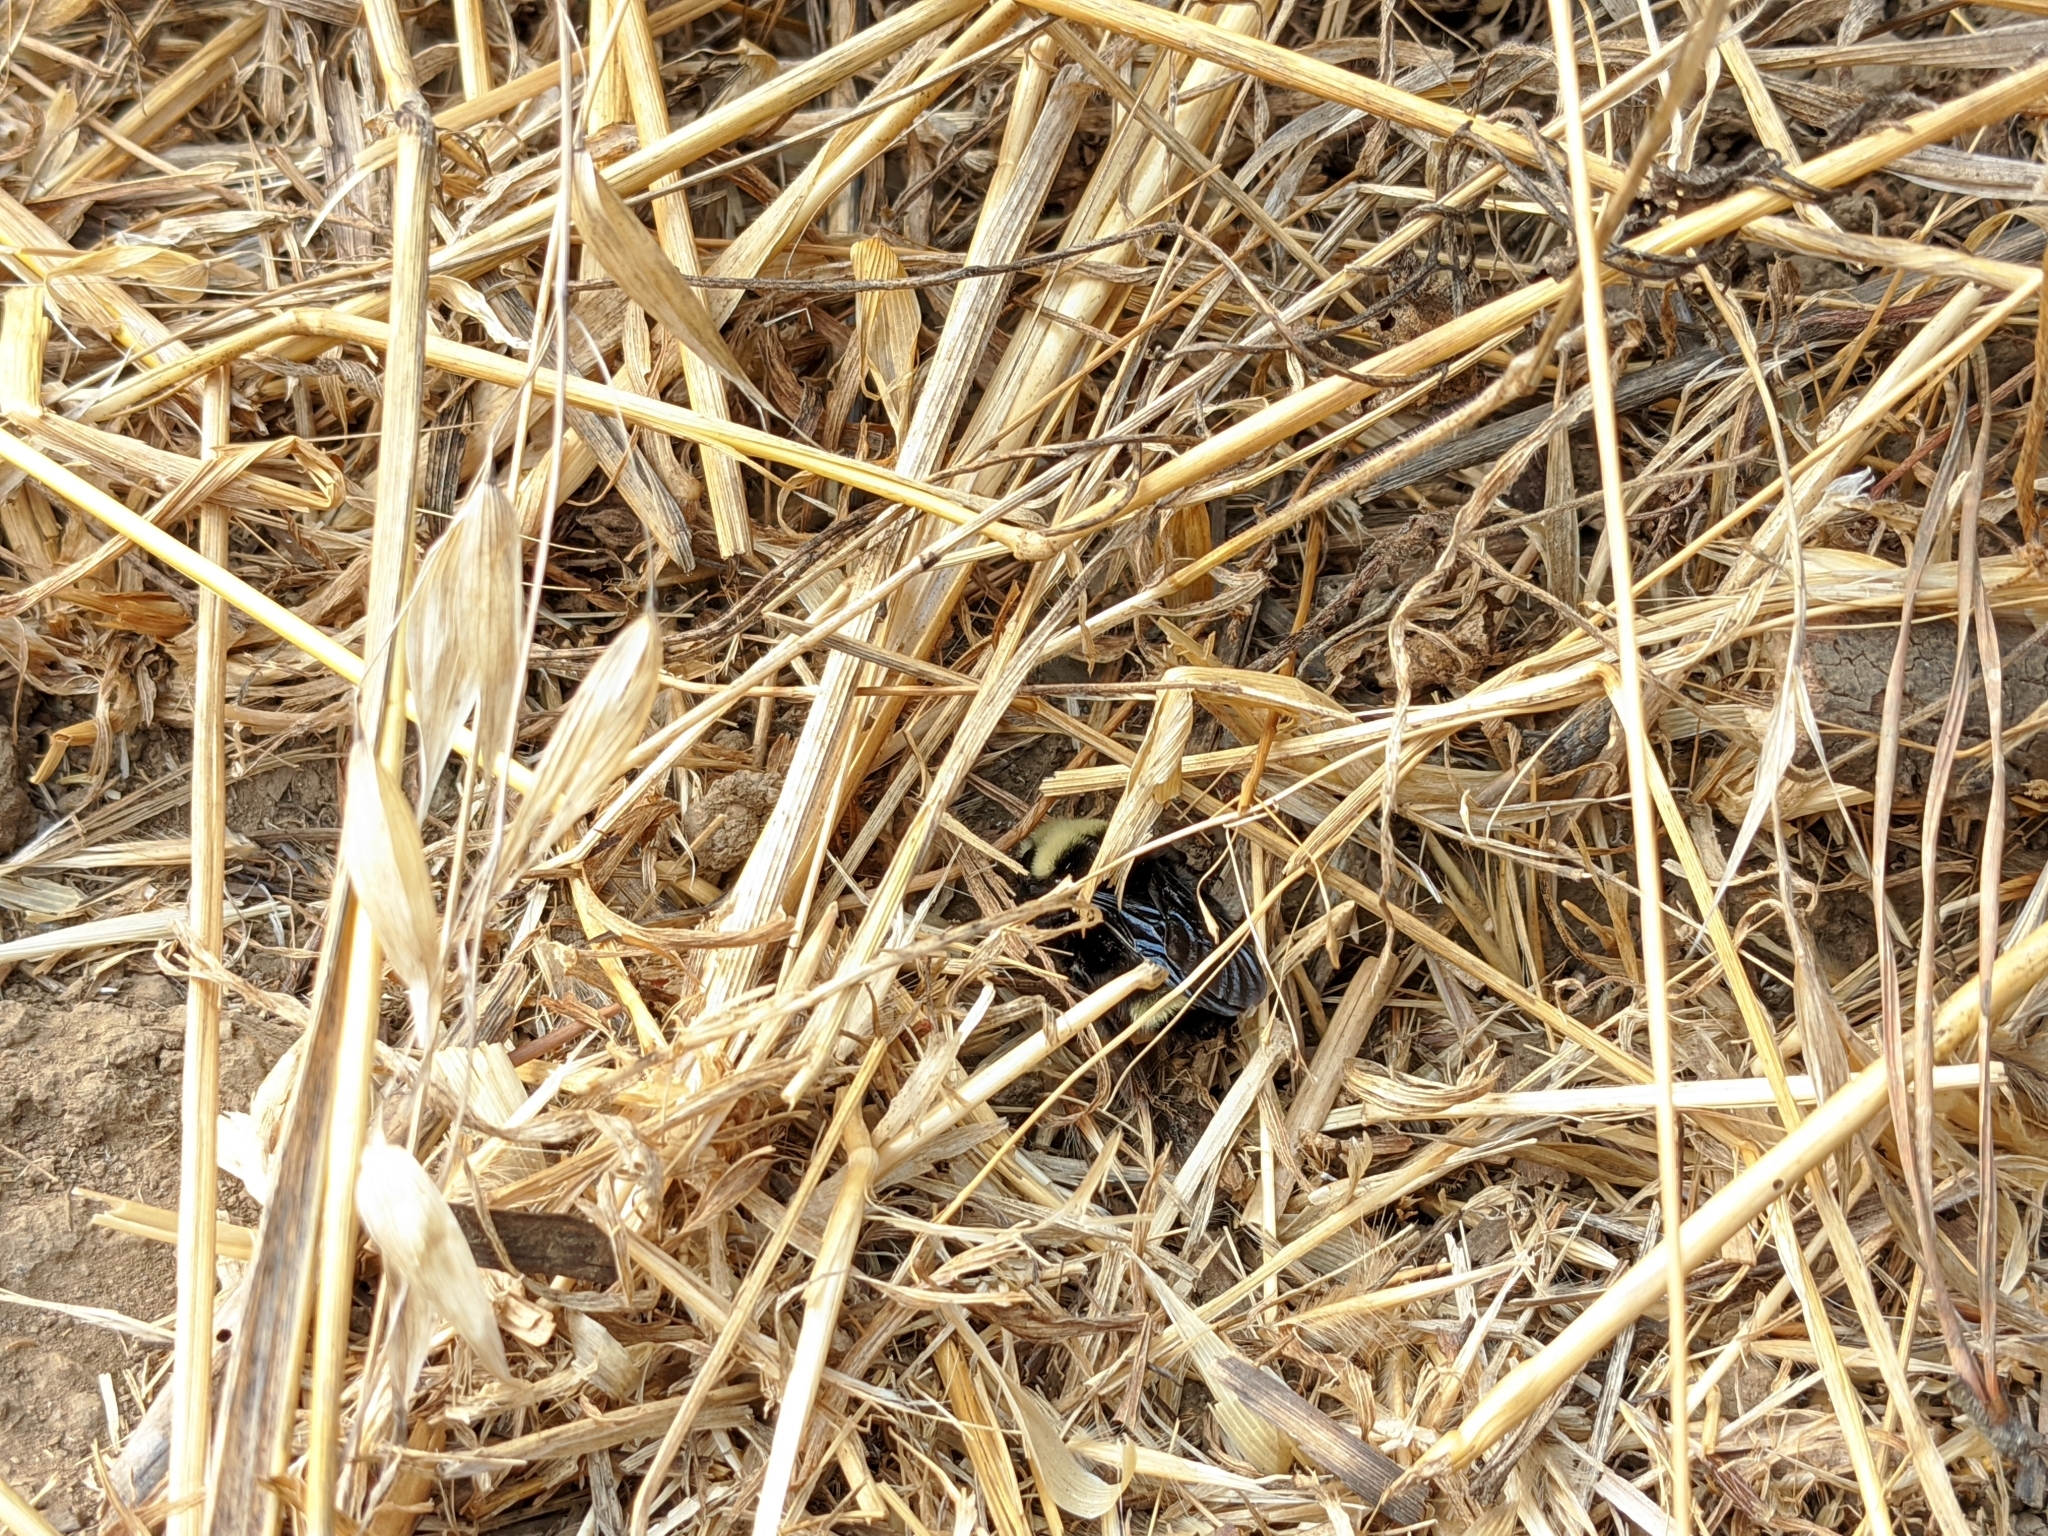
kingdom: Animalia
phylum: Arthropoda
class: Insecta
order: Hymenoptera
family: Apidae
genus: Pyrobombus
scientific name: Pyrobombus
